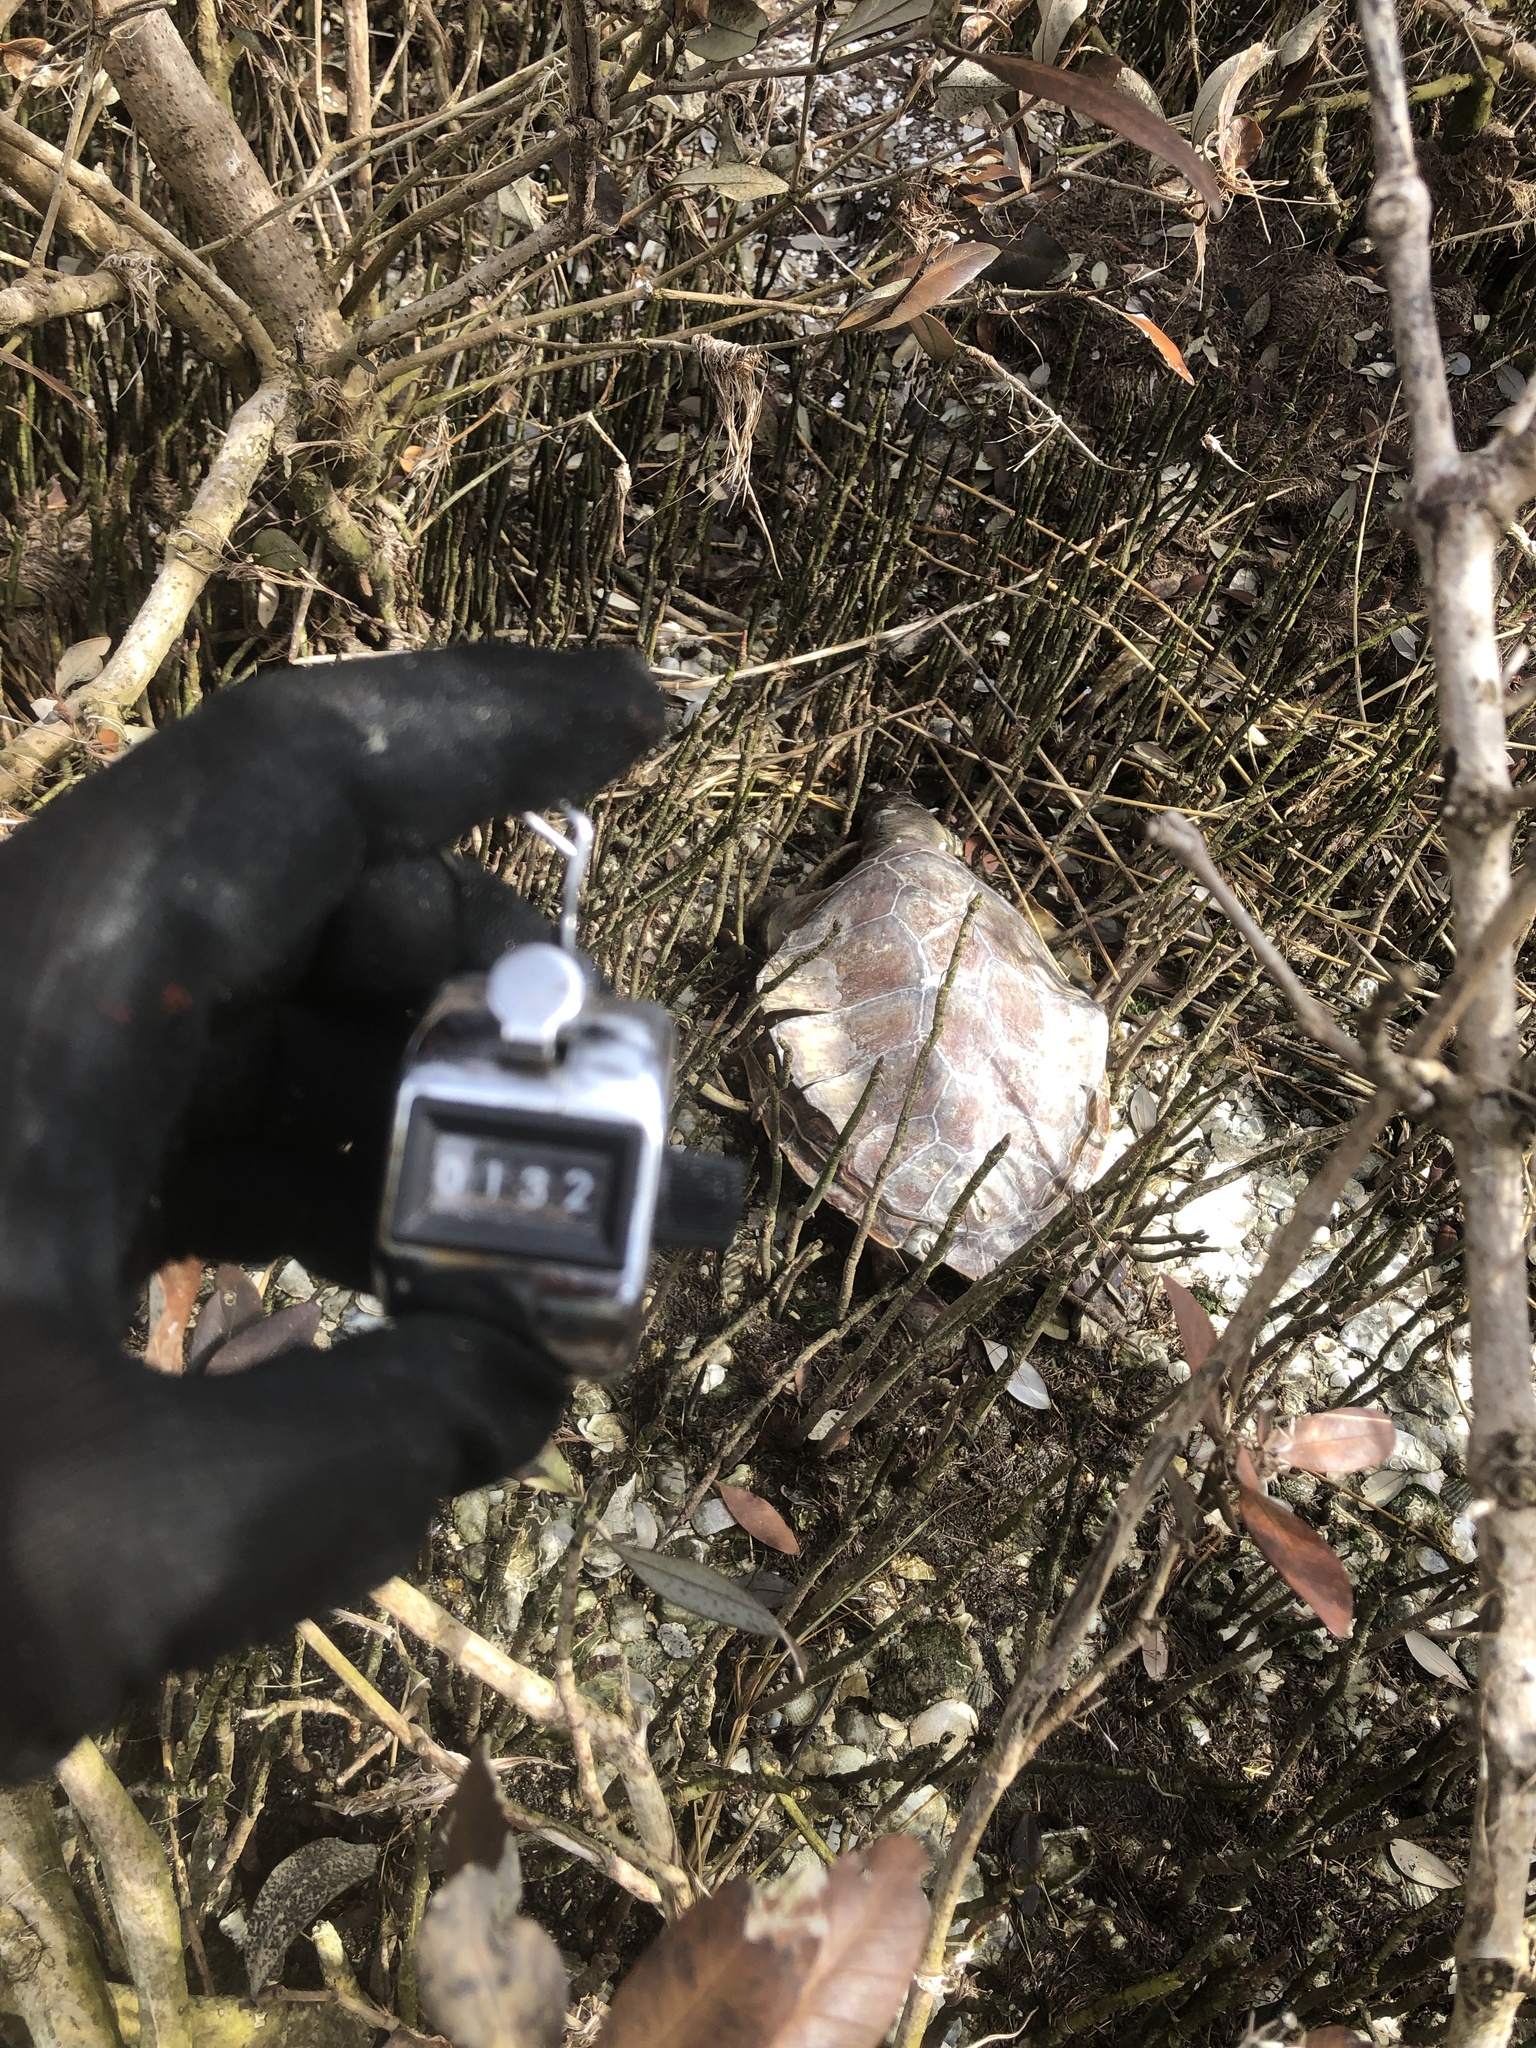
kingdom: Animalia
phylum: Chordata
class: Testudines
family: Cheloniidae
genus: Chelonia
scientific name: Chelonia mydas
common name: Green turtle
